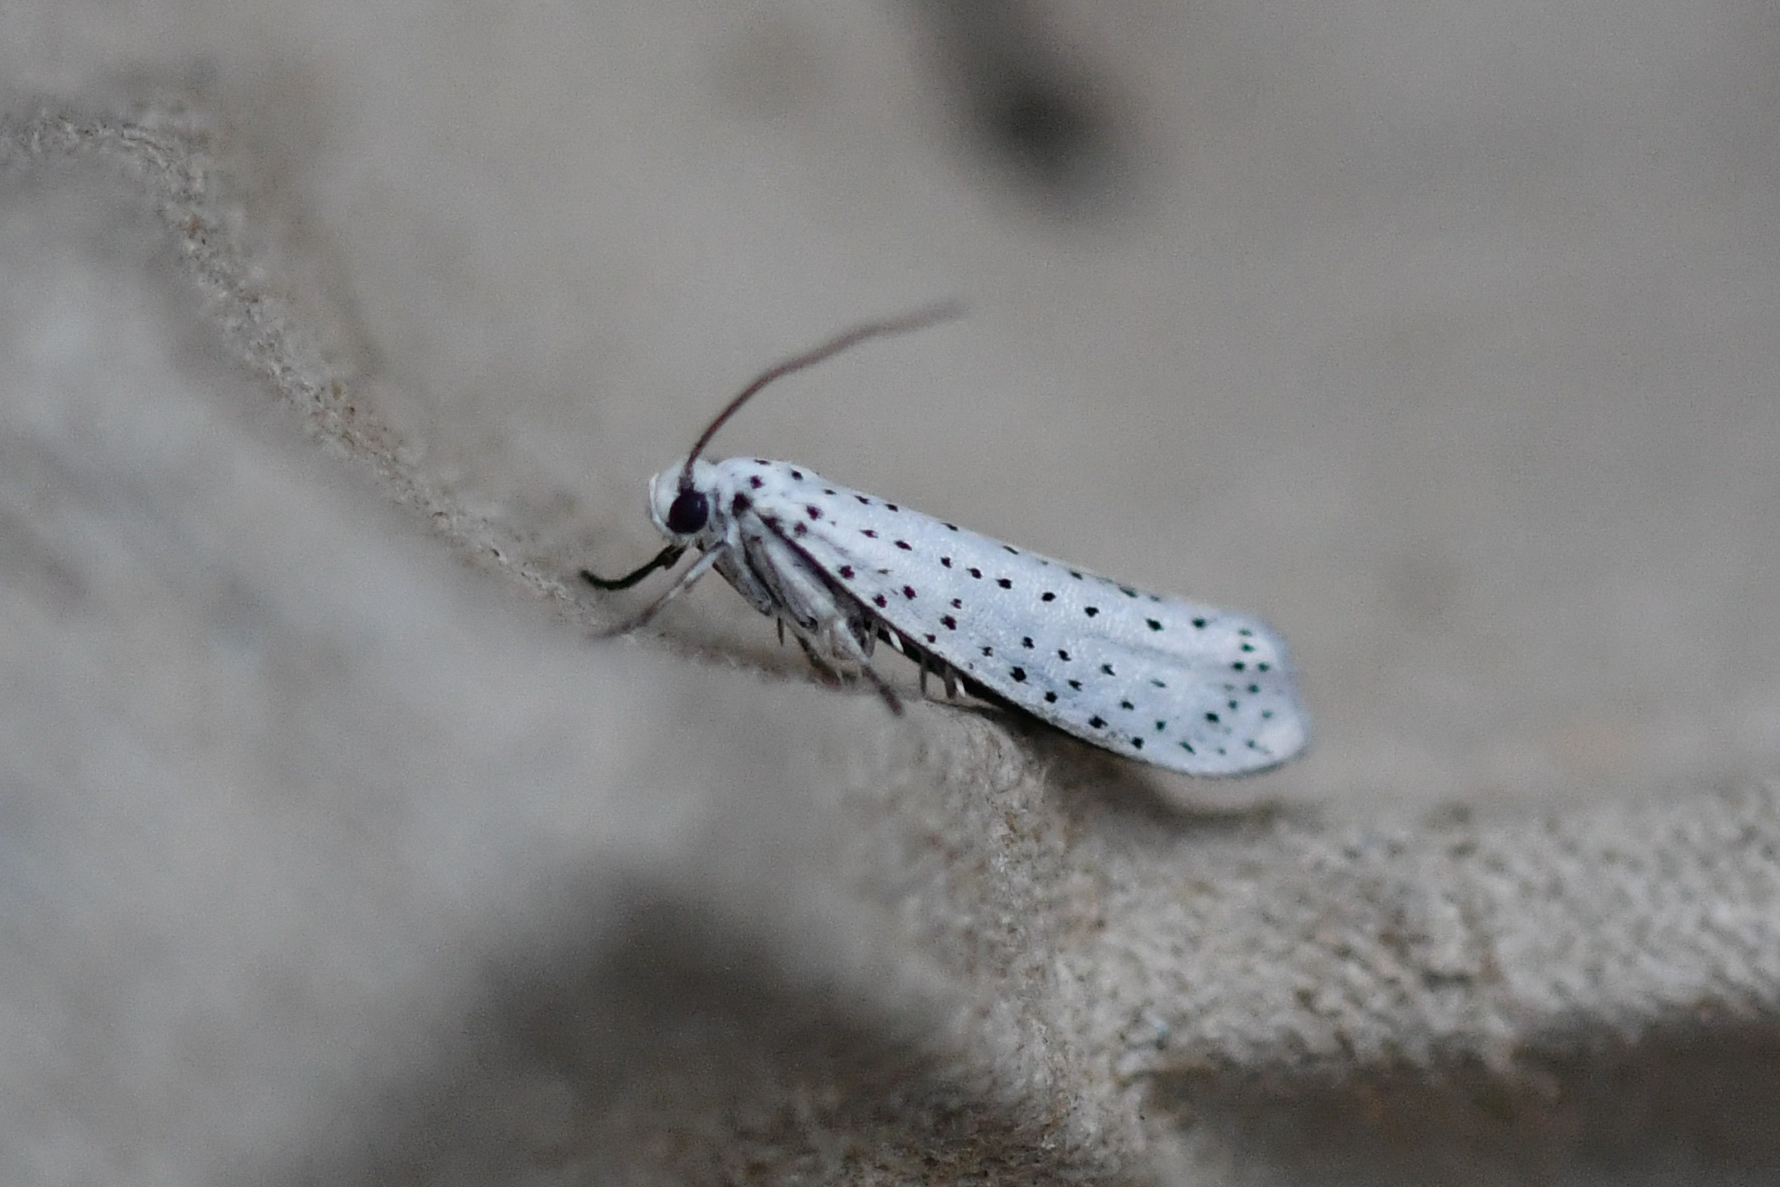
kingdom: Animalia
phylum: Arthropoda
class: Insecta
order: Lepidoptera
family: Yponomeutidae
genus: Yponomeuta
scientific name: Yponomeuta evonymella
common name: Bird-cherry ermine
